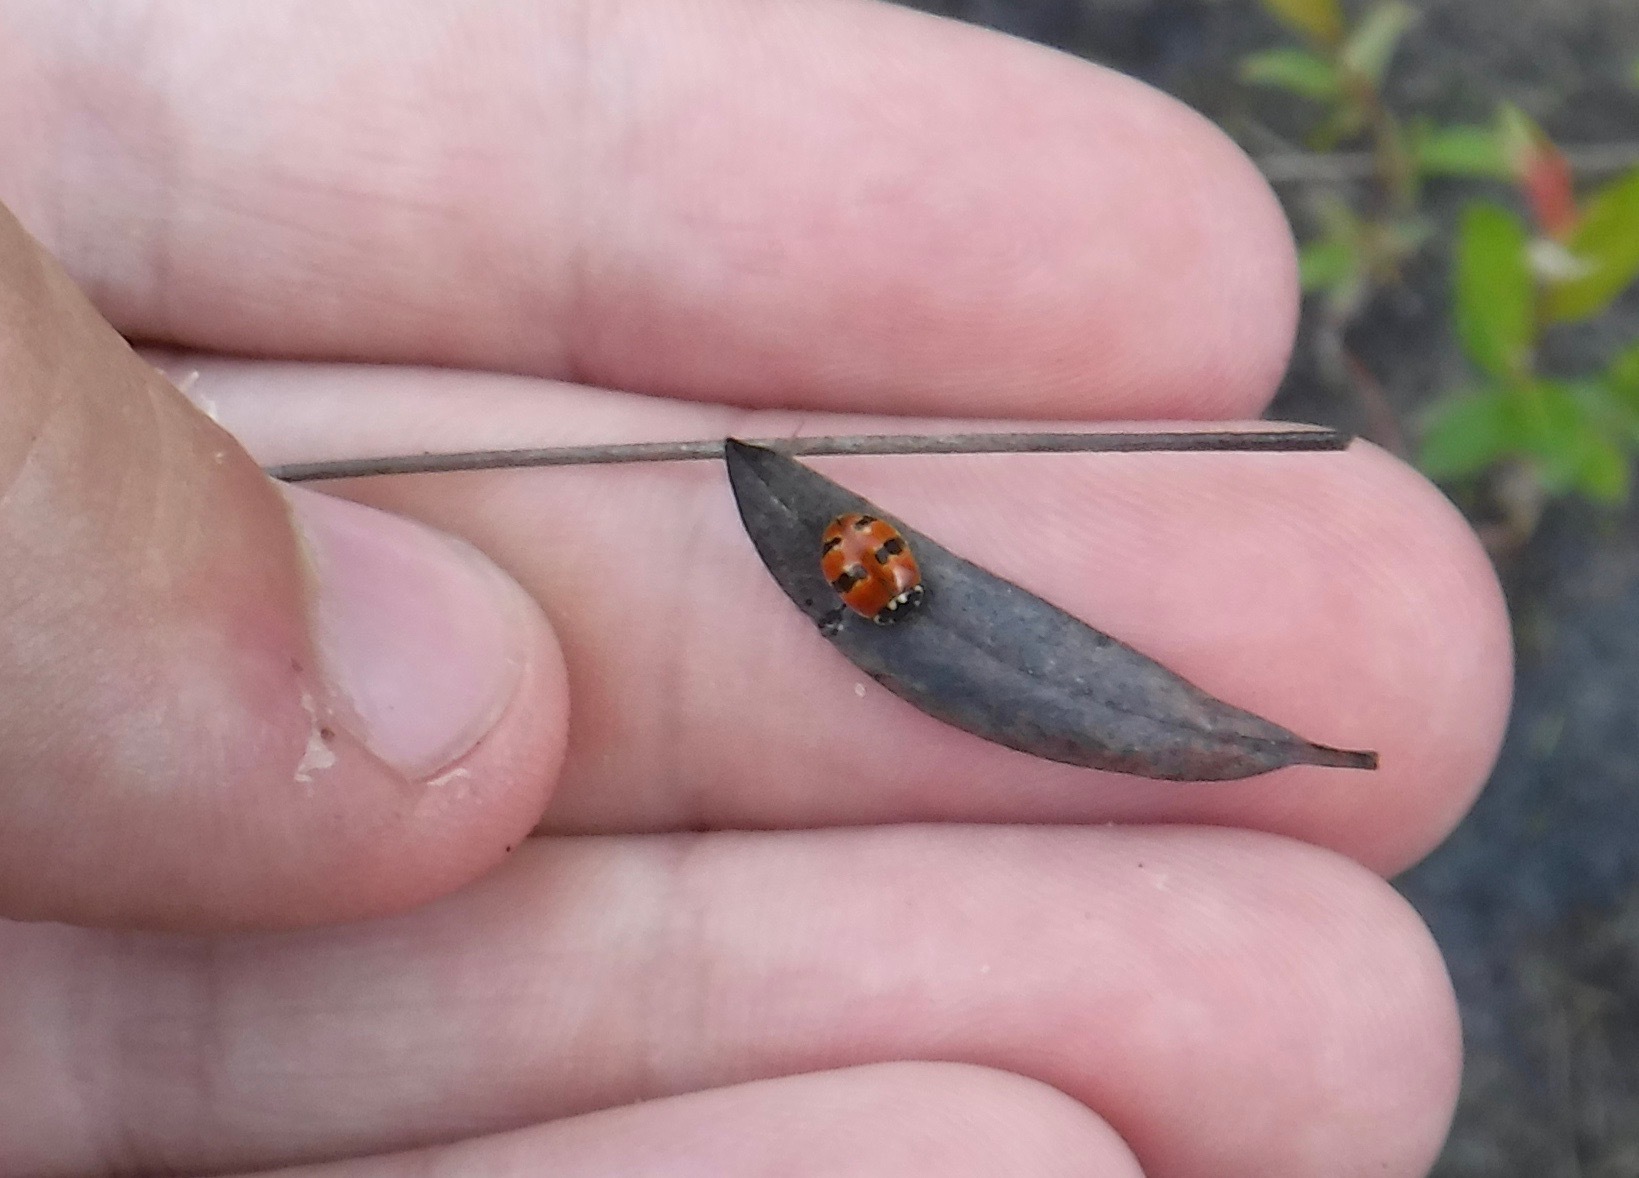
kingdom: Animalia
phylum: Arthropoda
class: Insecta
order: Coleoptera
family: Coccinellidae
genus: Adalia
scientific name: Adalia bipunctata
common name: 2-spot ladybird
